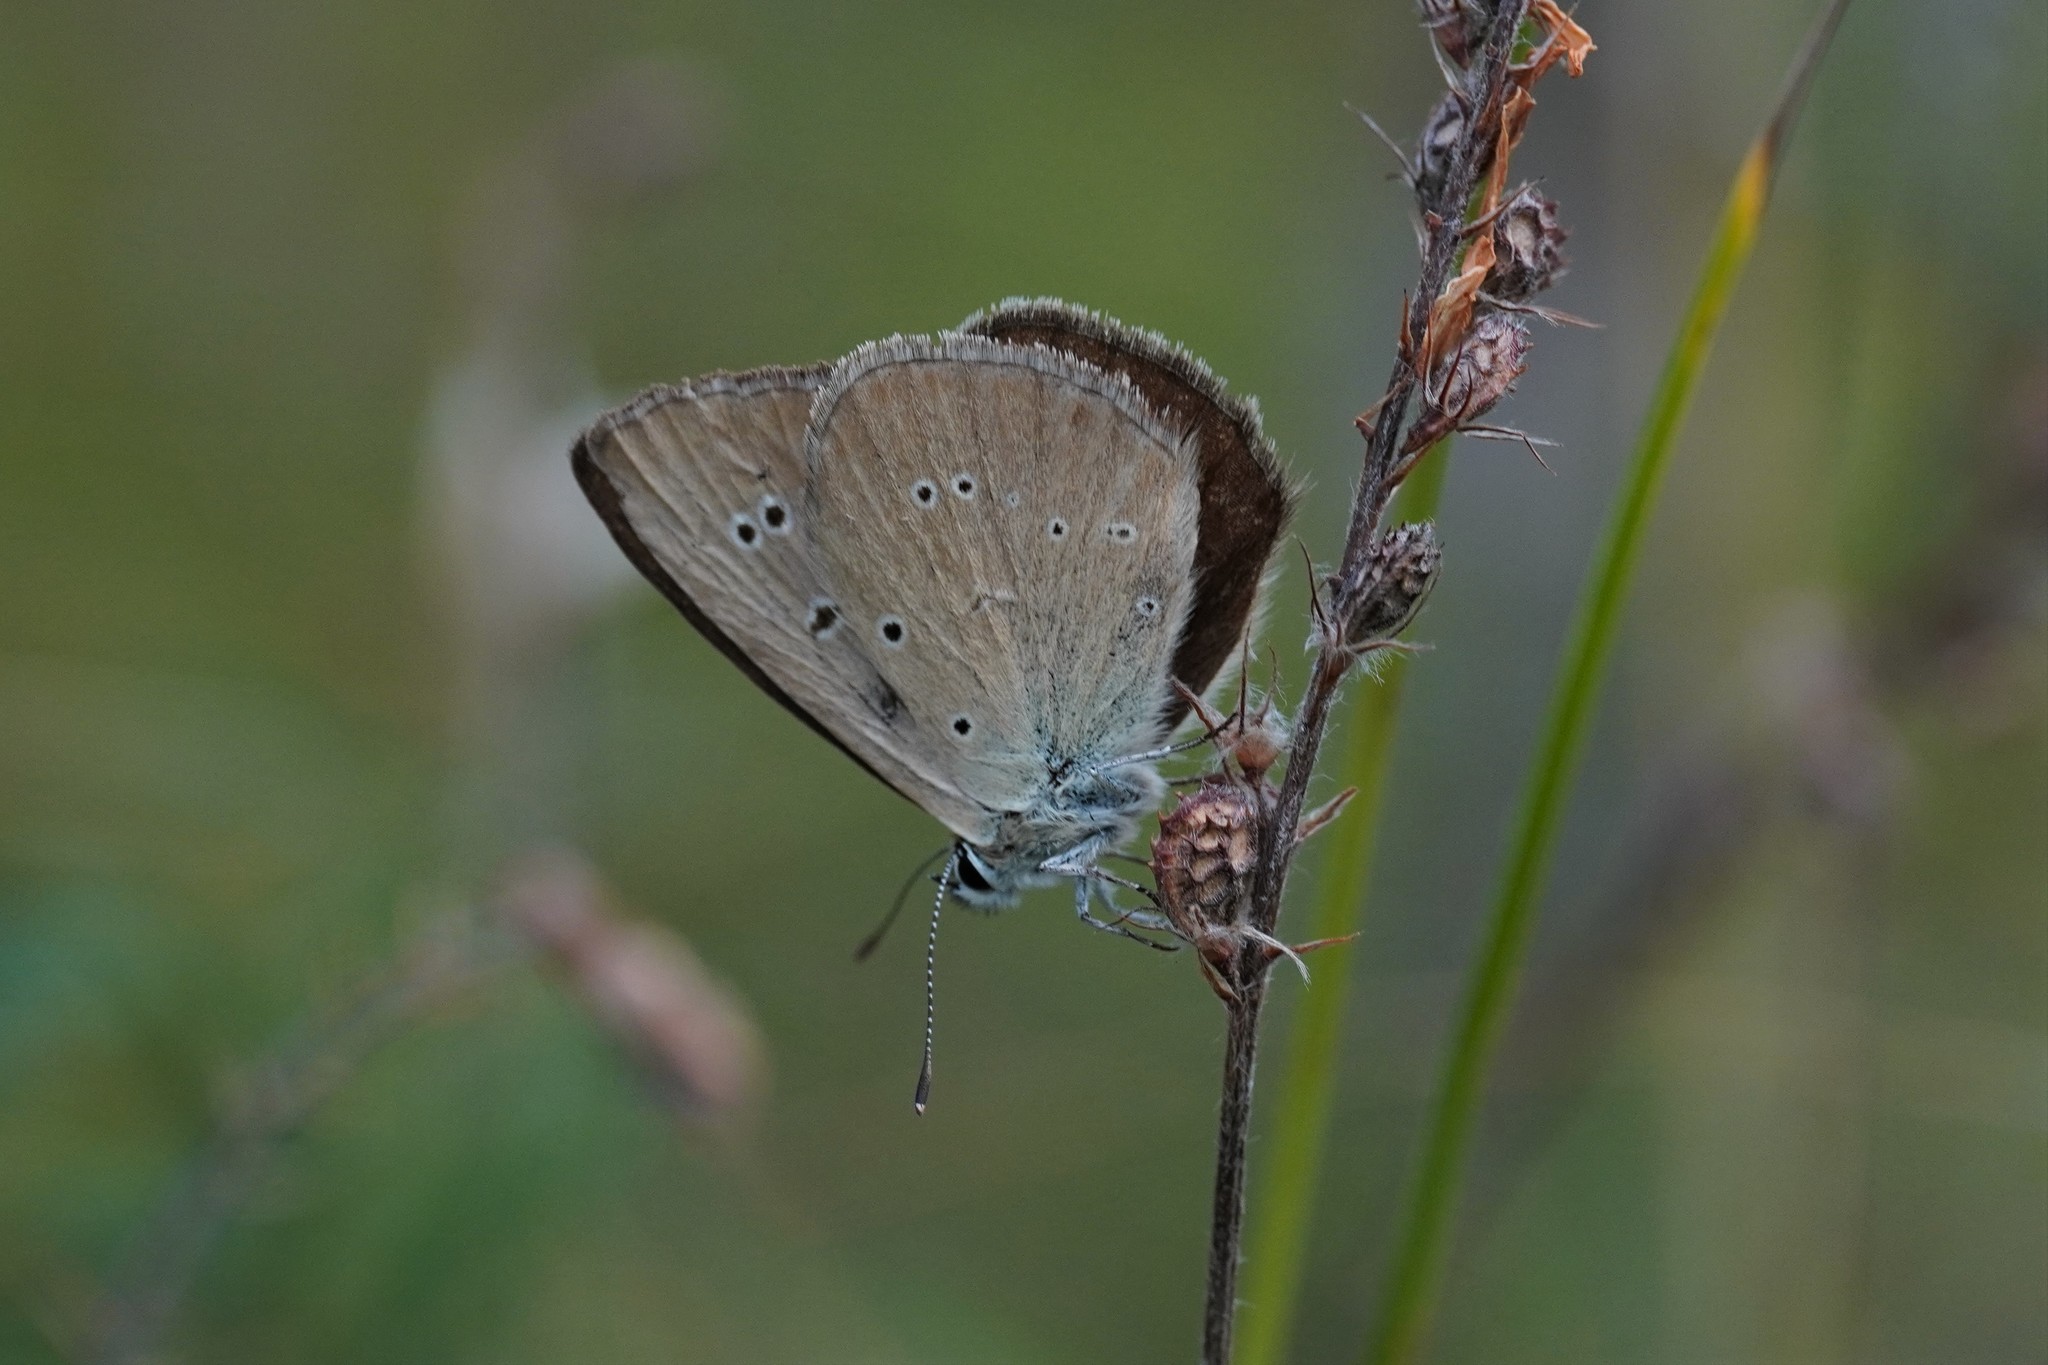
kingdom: Animalia
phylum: Arthropoda
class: Insecta
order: Lepidoptera
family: Lycaenidae
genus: Agrodiaetus
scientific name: Agrodiaetus humedasae
